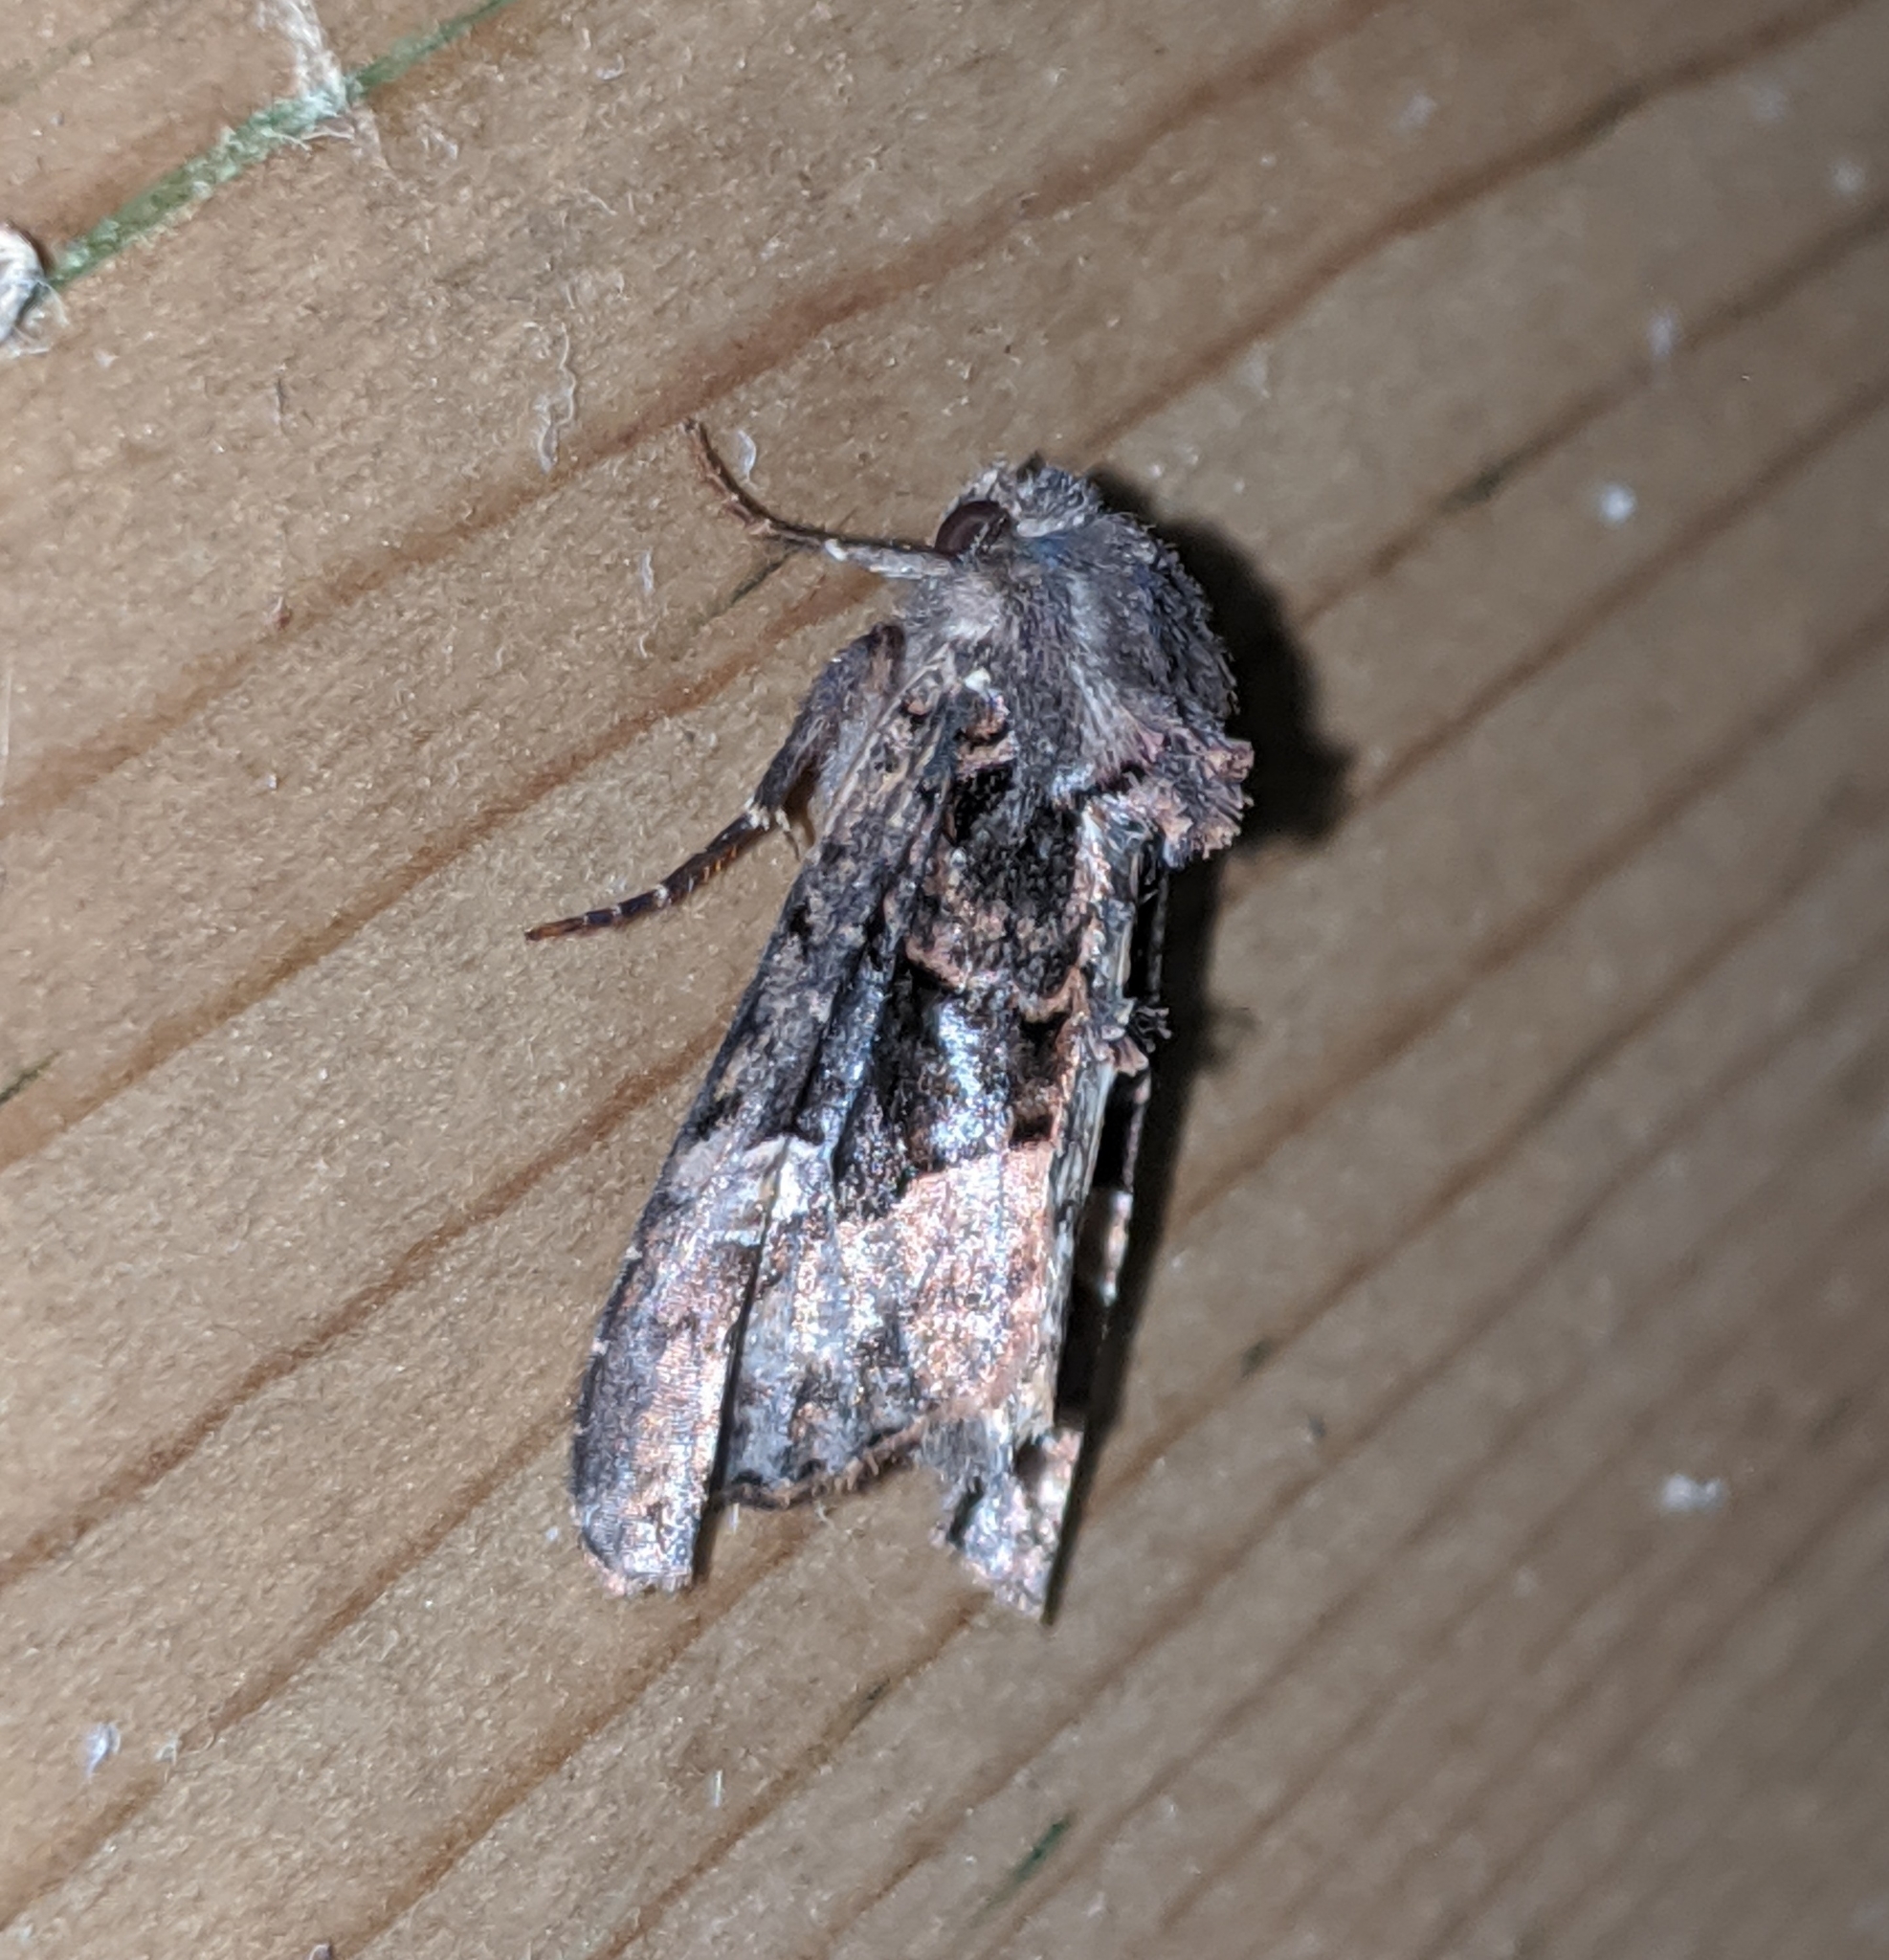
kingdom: Animalia
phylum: Arthropoda
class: Insecta
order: Lepidoptera
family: Noctuidae
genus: Euplexia
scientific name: Euplexia benesimilis
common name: American angle shades
